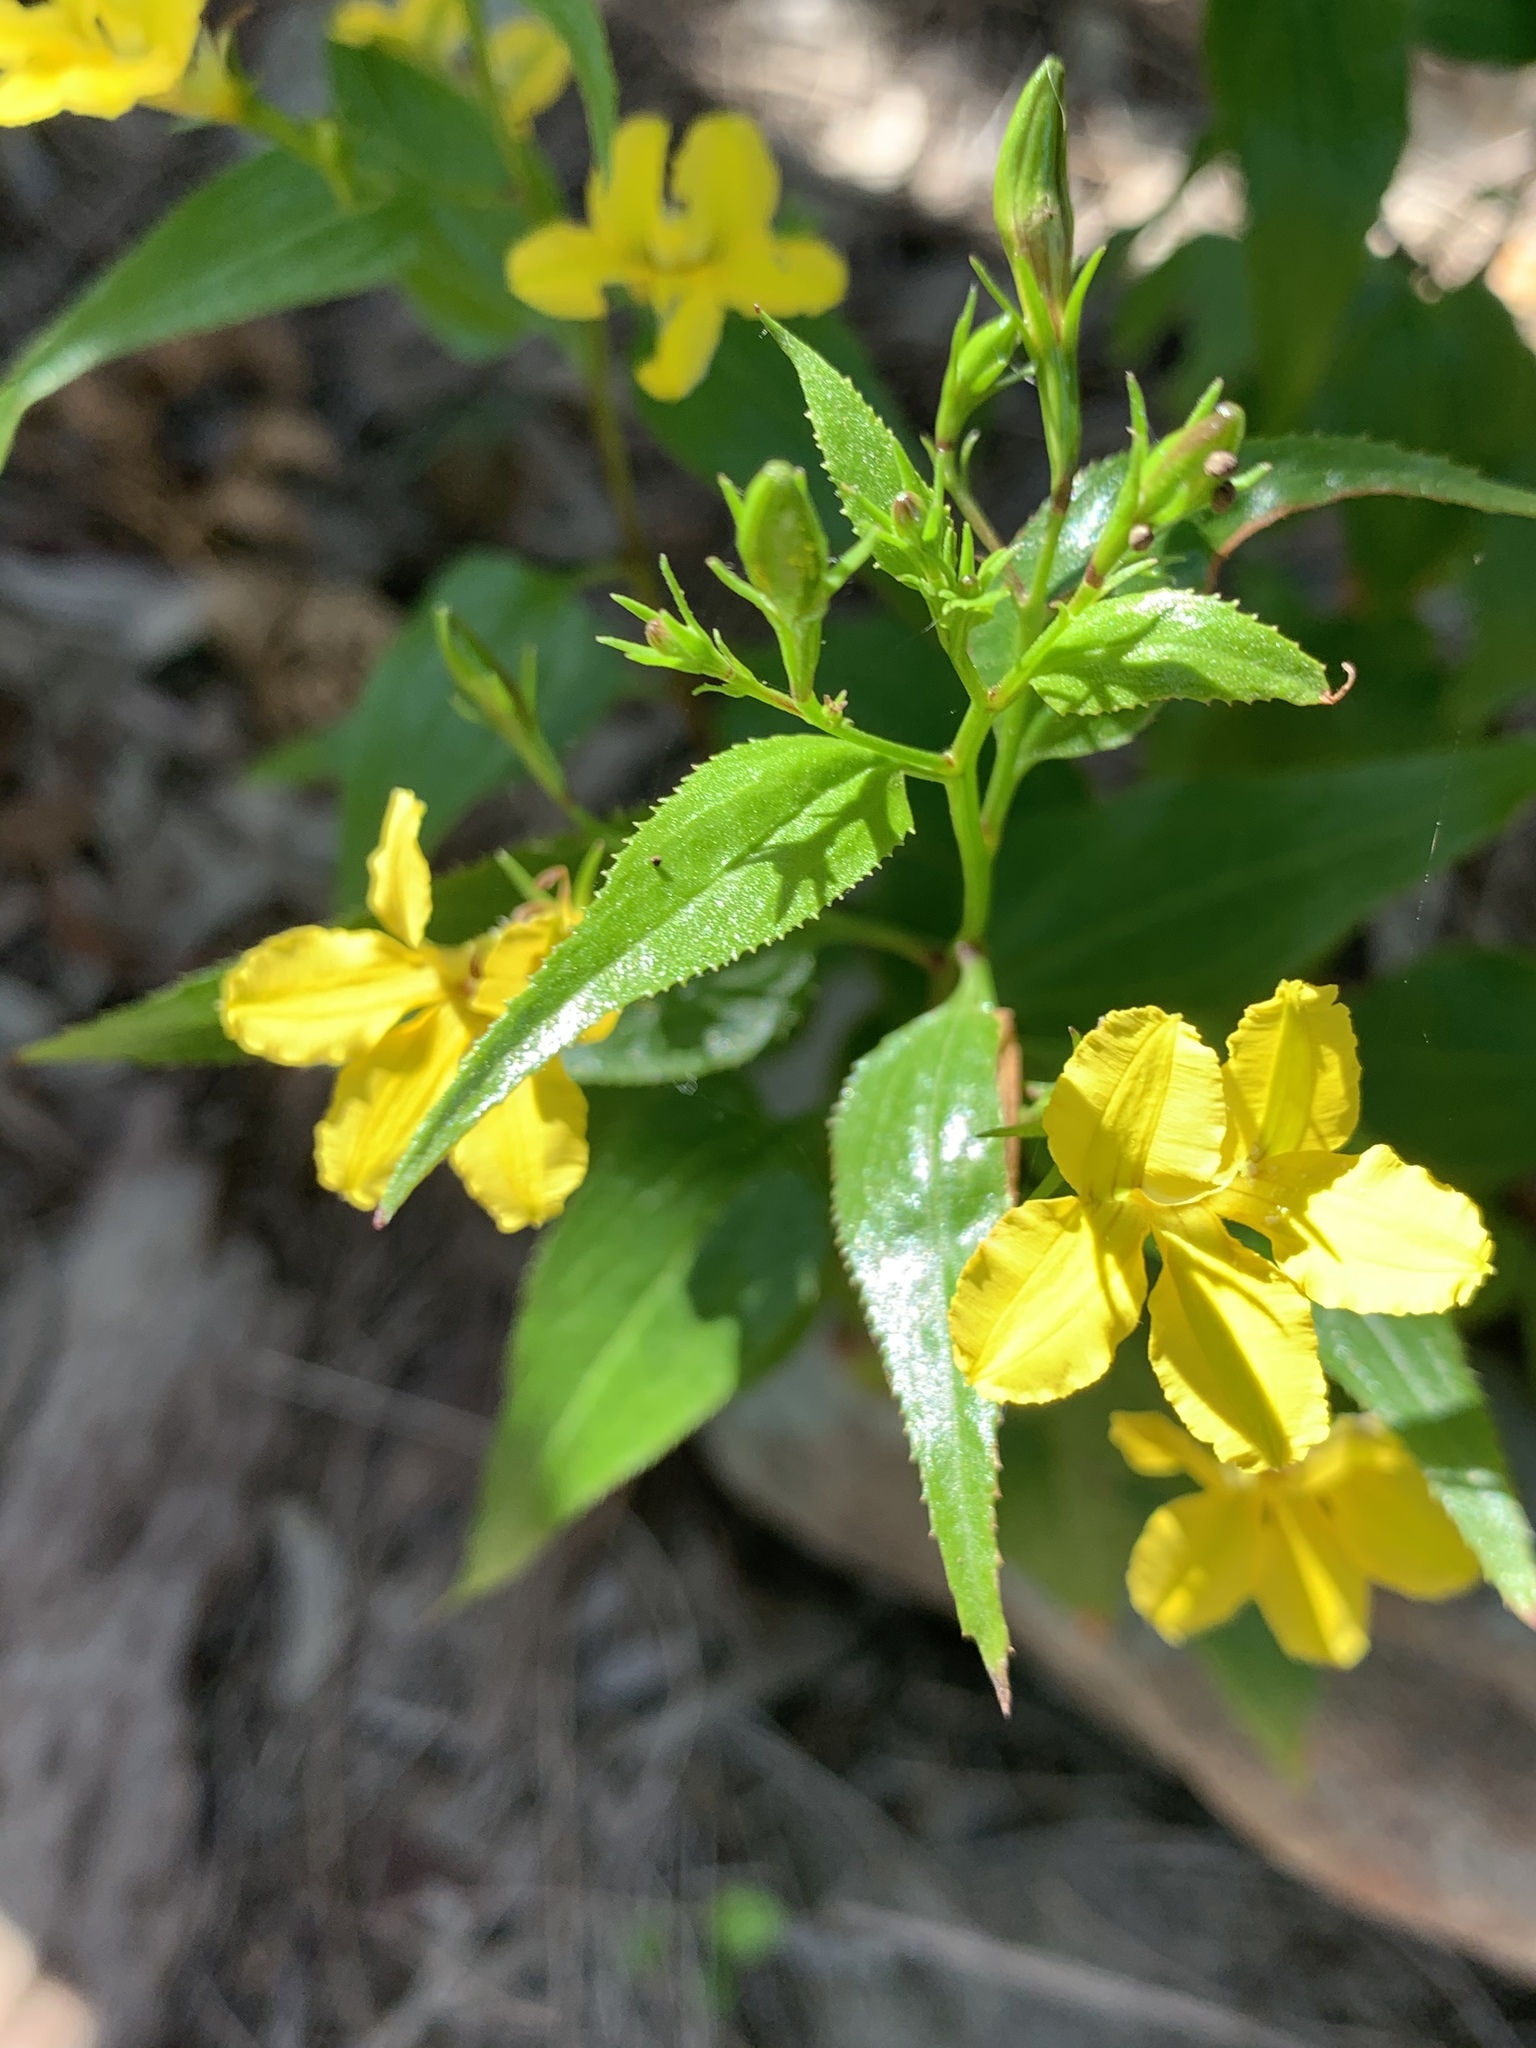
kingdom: Plantae
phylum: Tracheophyta
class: Magnoliopsida
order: Asterales
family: Goodeniaceae
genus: Goodenia
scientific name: Goodenia ovata
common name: Hop goodenia
